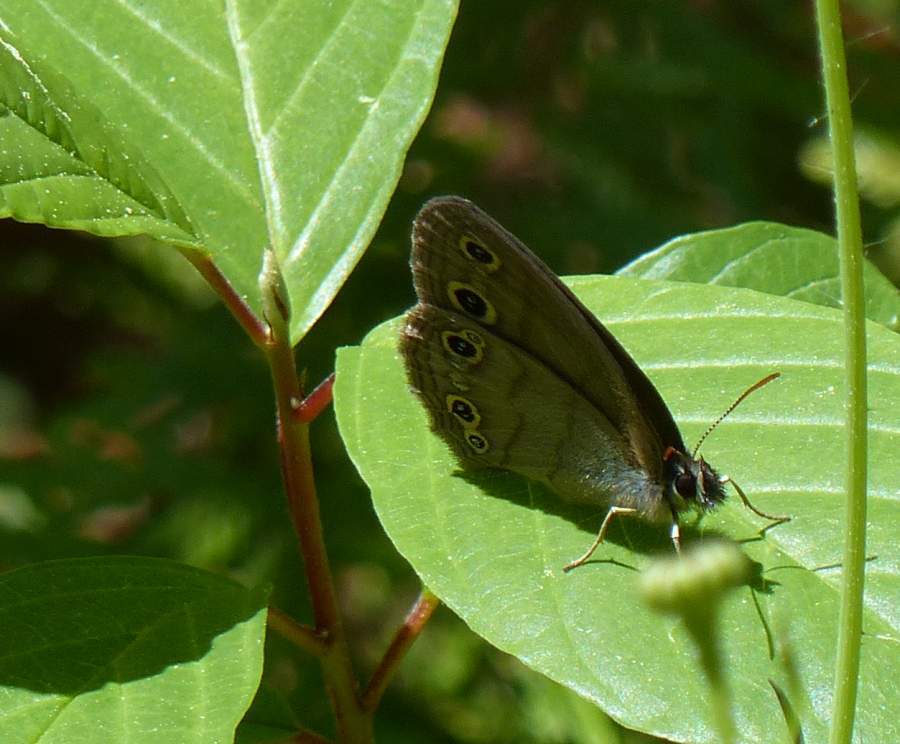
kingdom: Animalia
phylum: Arthropoda
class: Insecta
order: Lepidoptera
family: Nymphalidae
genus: Euptychia
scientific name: Euptychia cymela
